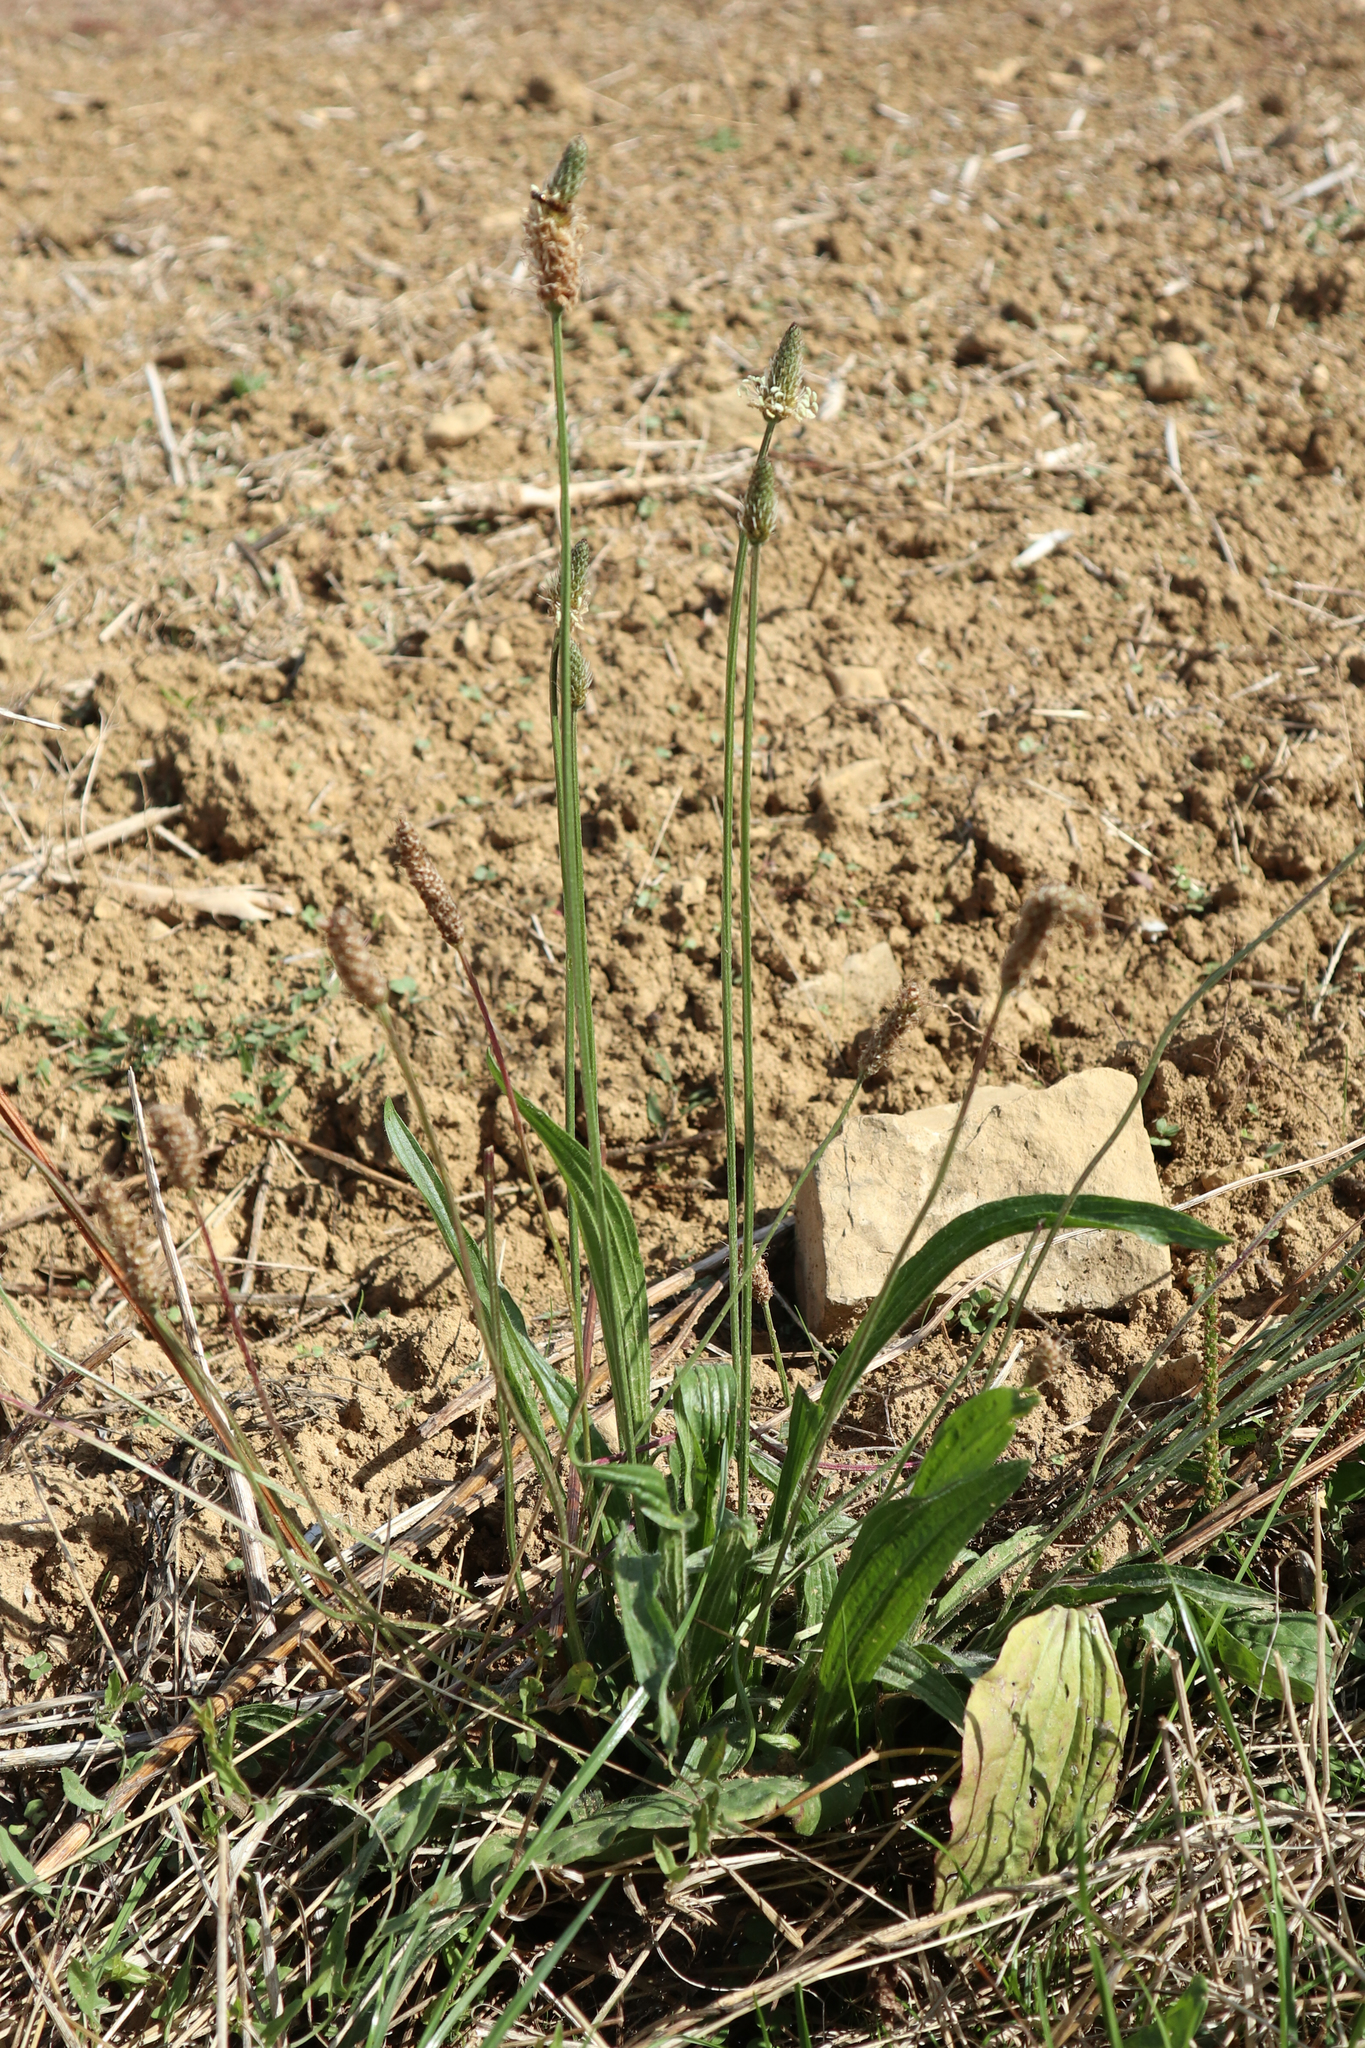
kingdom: Plantae
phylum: Tracheophyta
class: Magnoliopsida
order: Lamiales
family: Plantaginaceae
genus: Plantago
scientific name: Plantago lanceolata
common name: Ribwort plantain
